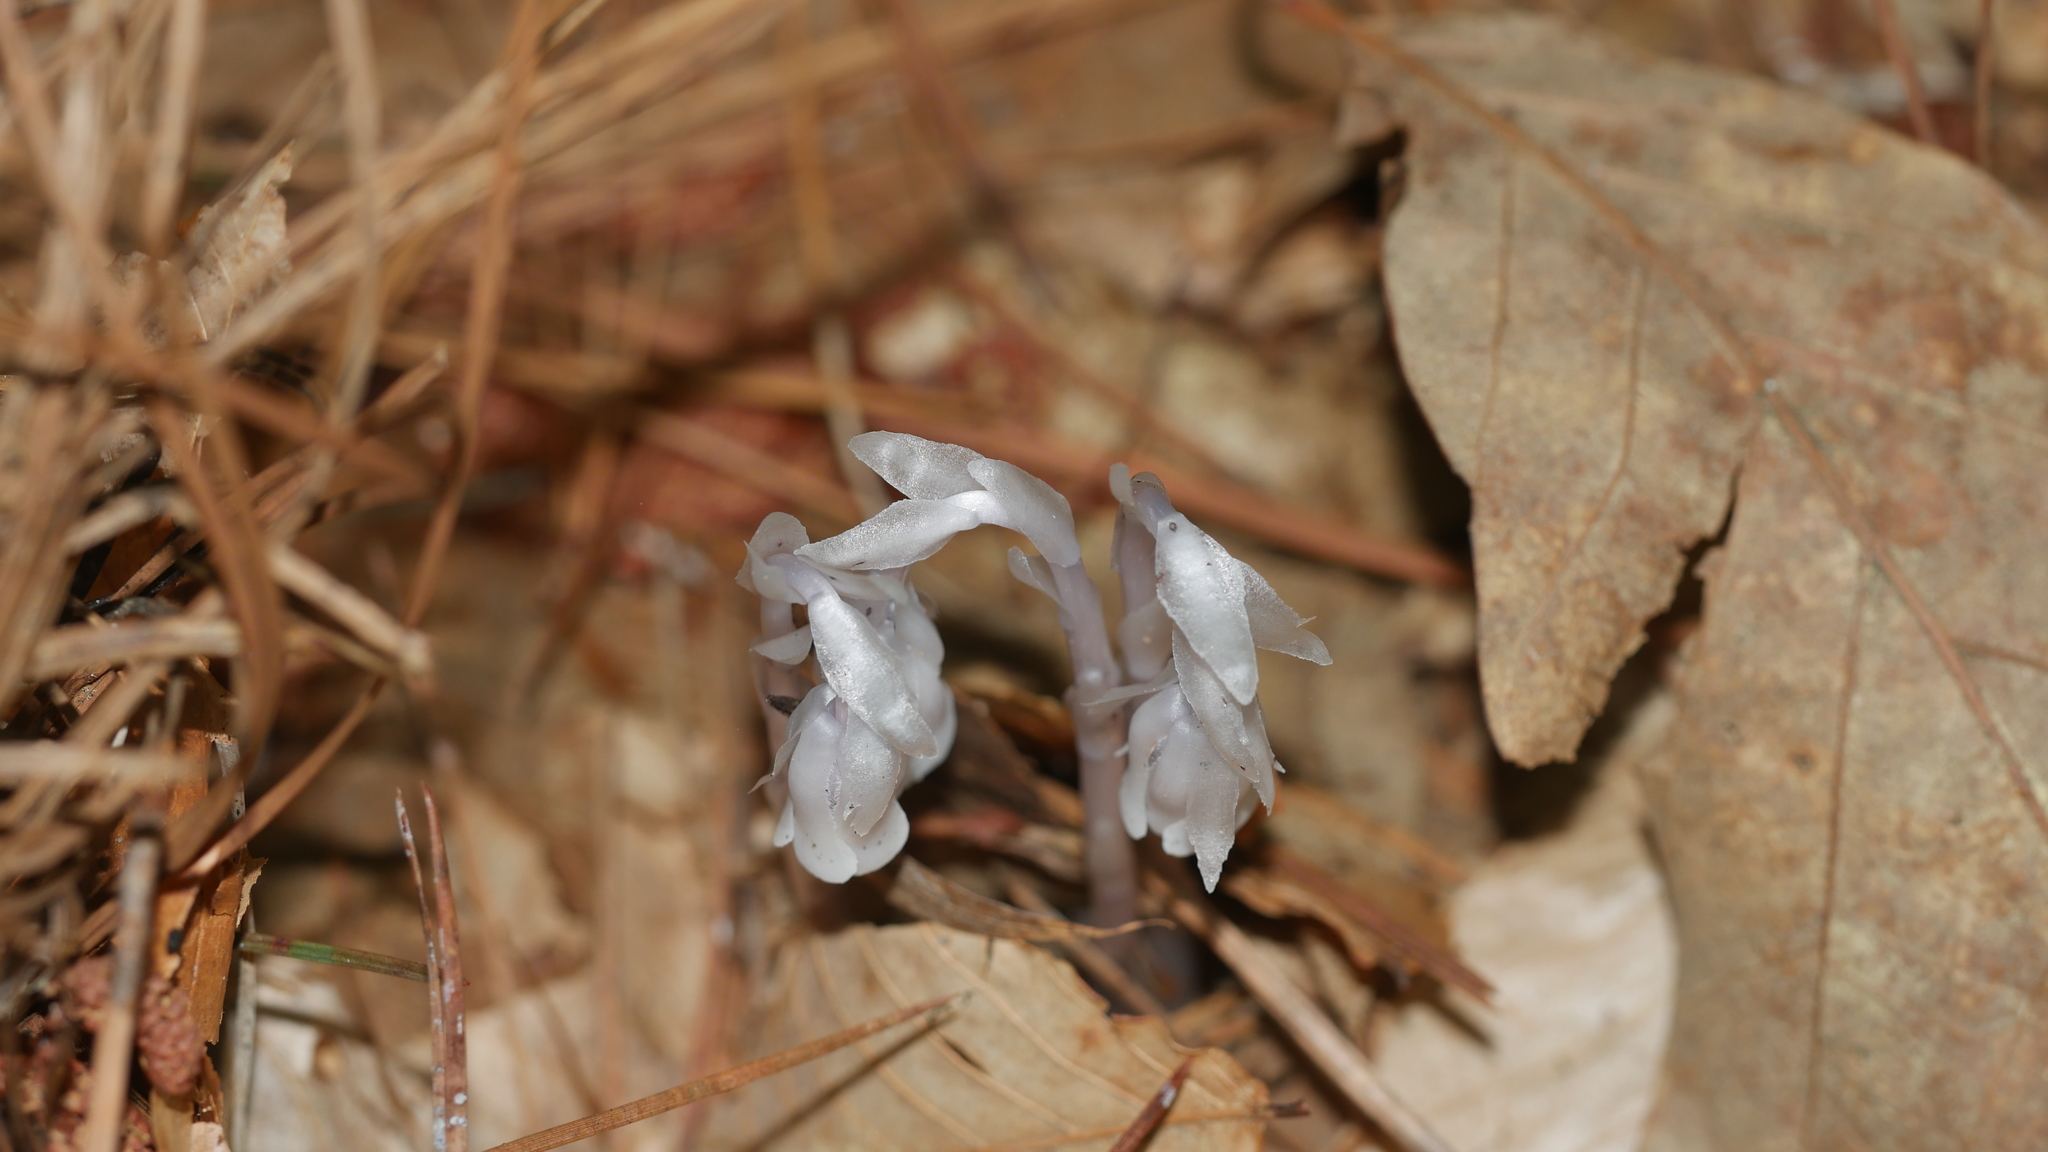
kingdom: Plantae
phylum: Tracheophyta
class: Magnoliopsida
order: Ericales
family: Ericaceae
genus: Monotropa
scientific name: Monotropa uniflora
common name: Convulsion root
